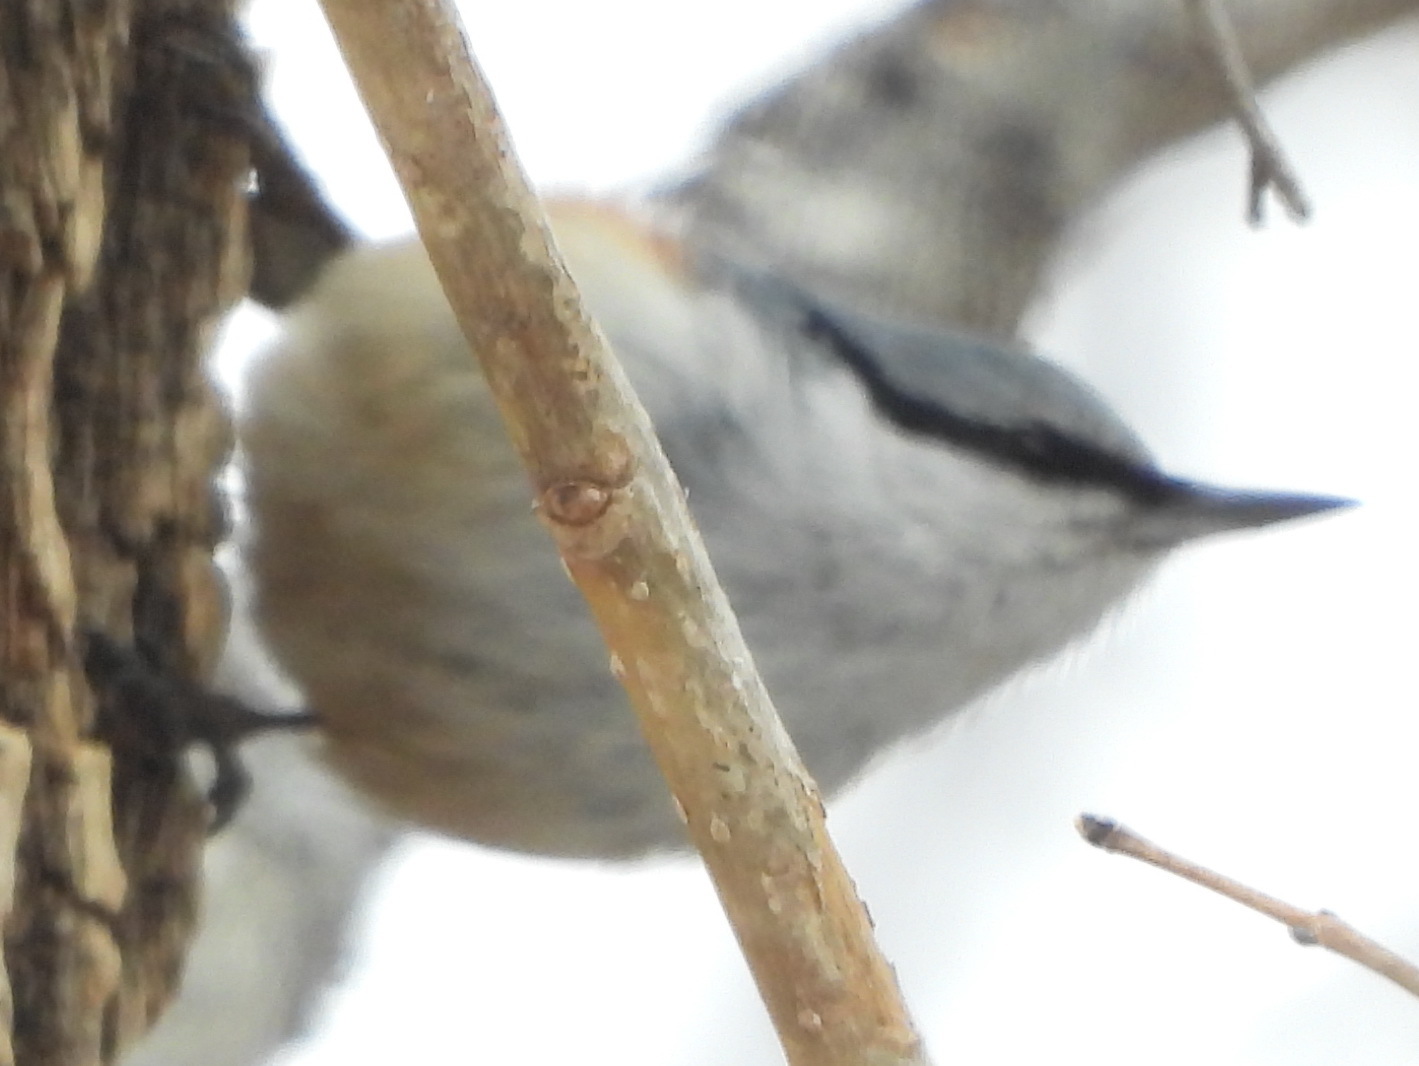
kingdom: Animalia
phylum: Chordata
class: Aves
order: Passeriformes
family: Sittidae
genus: Sitta
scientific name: Sitta europaea
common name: Eurasian nuthatch
